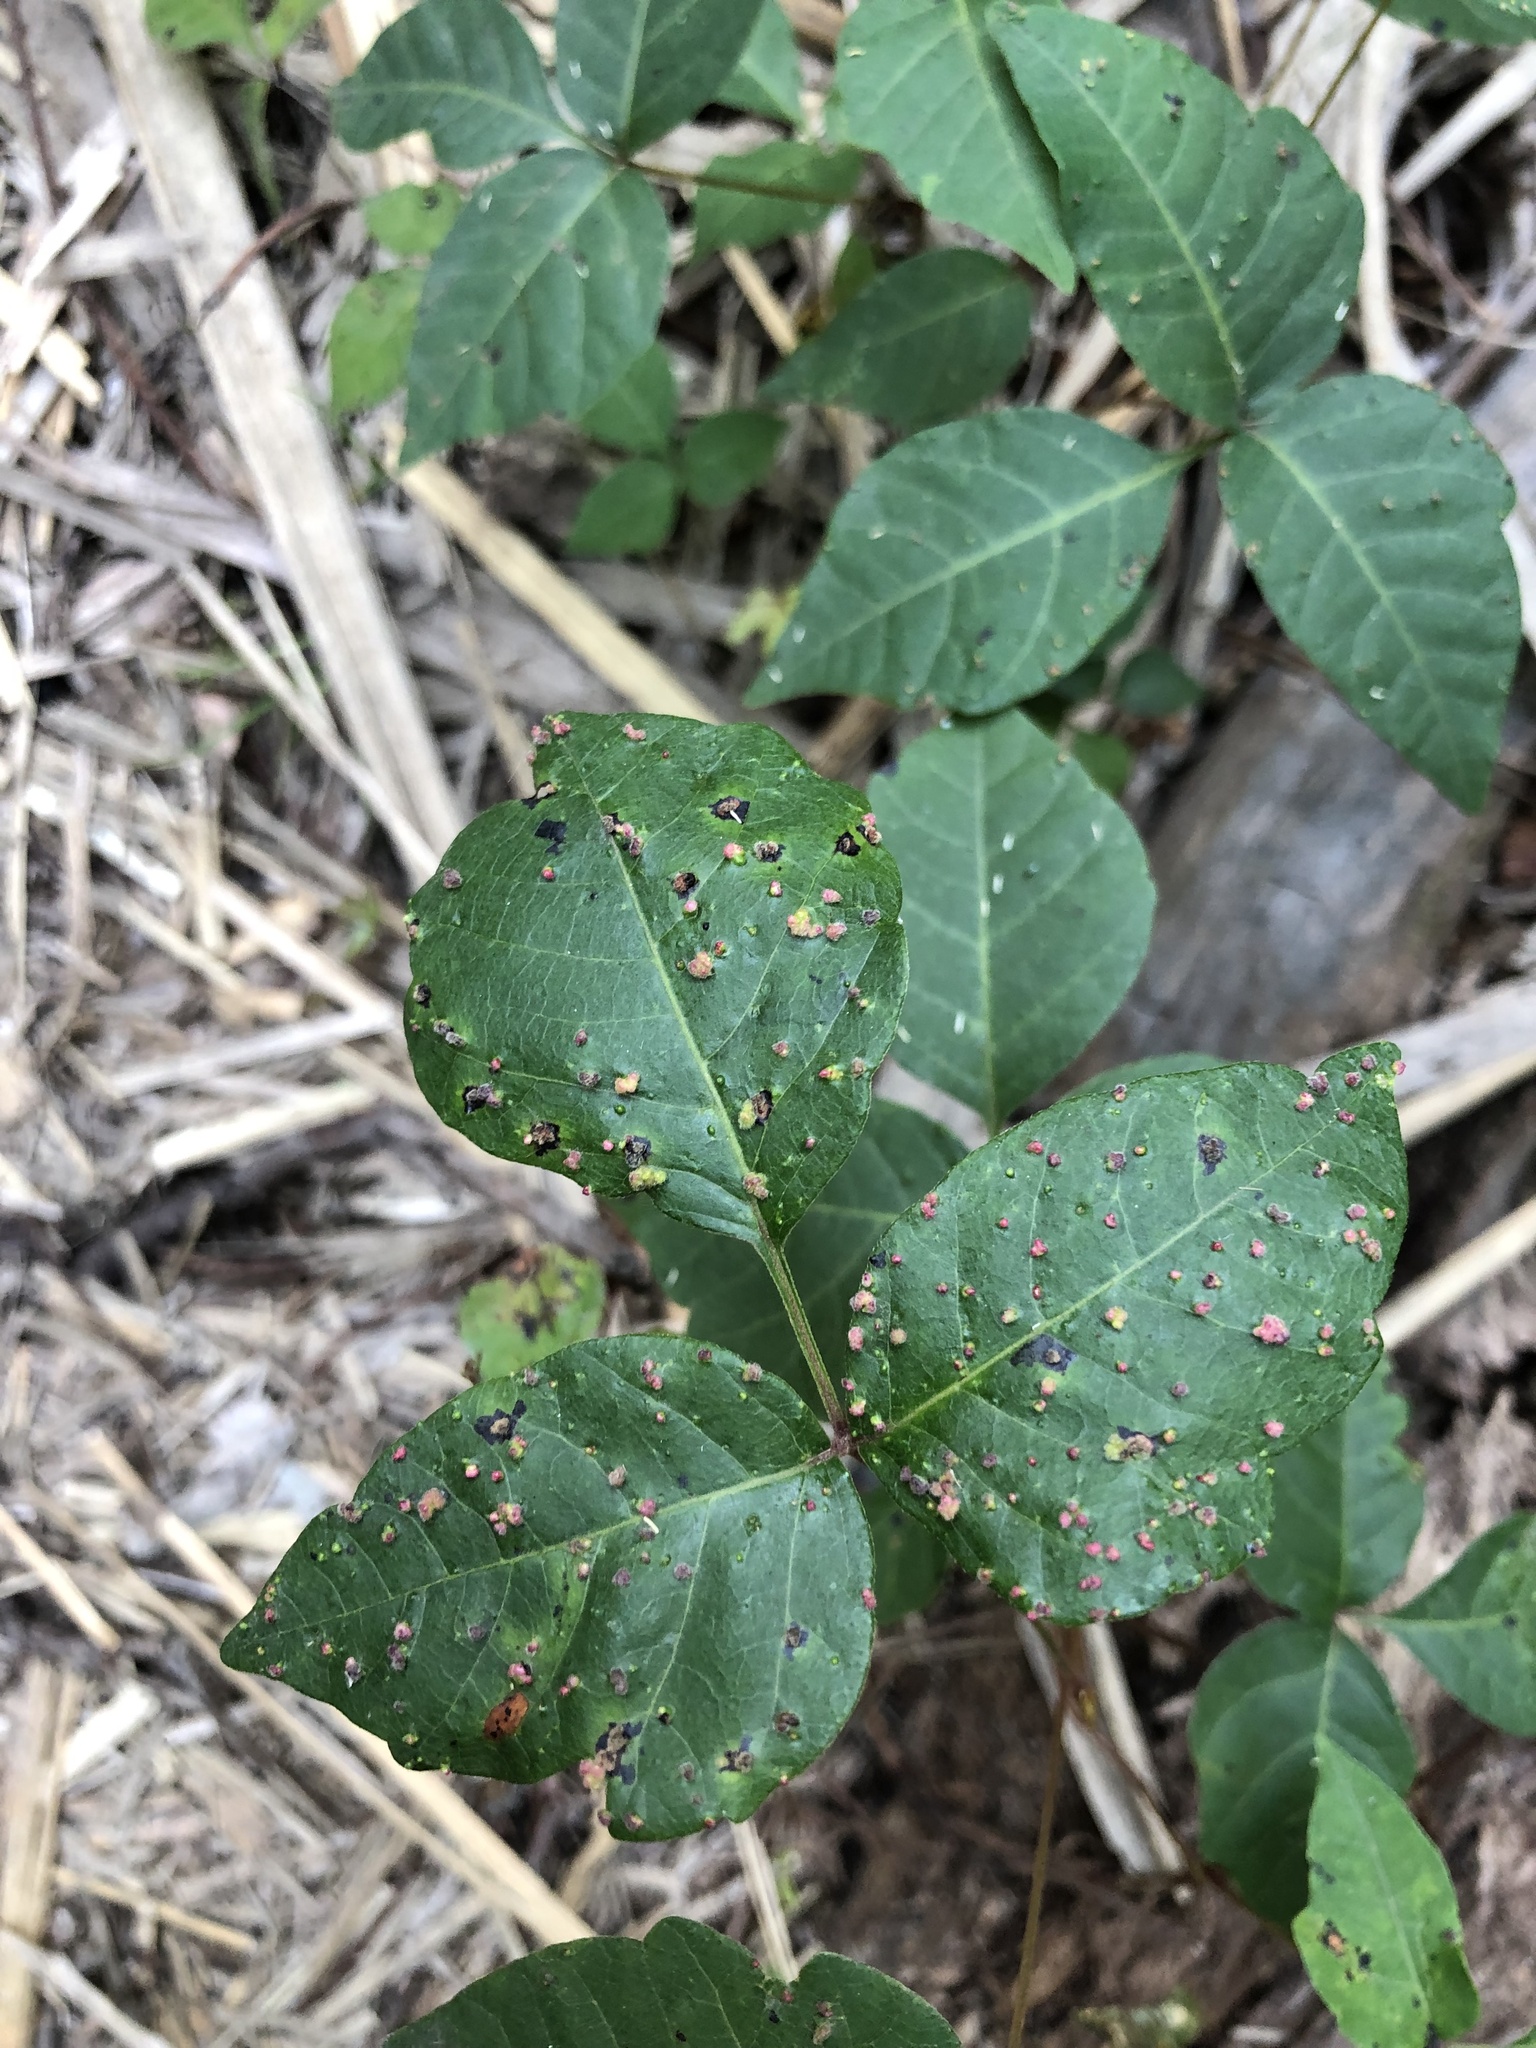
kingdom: Animalia
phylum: Arthropoda
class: Arachnida
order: Trombidiformes
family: Eriophyidae
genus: Aculops
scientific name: Aculops
